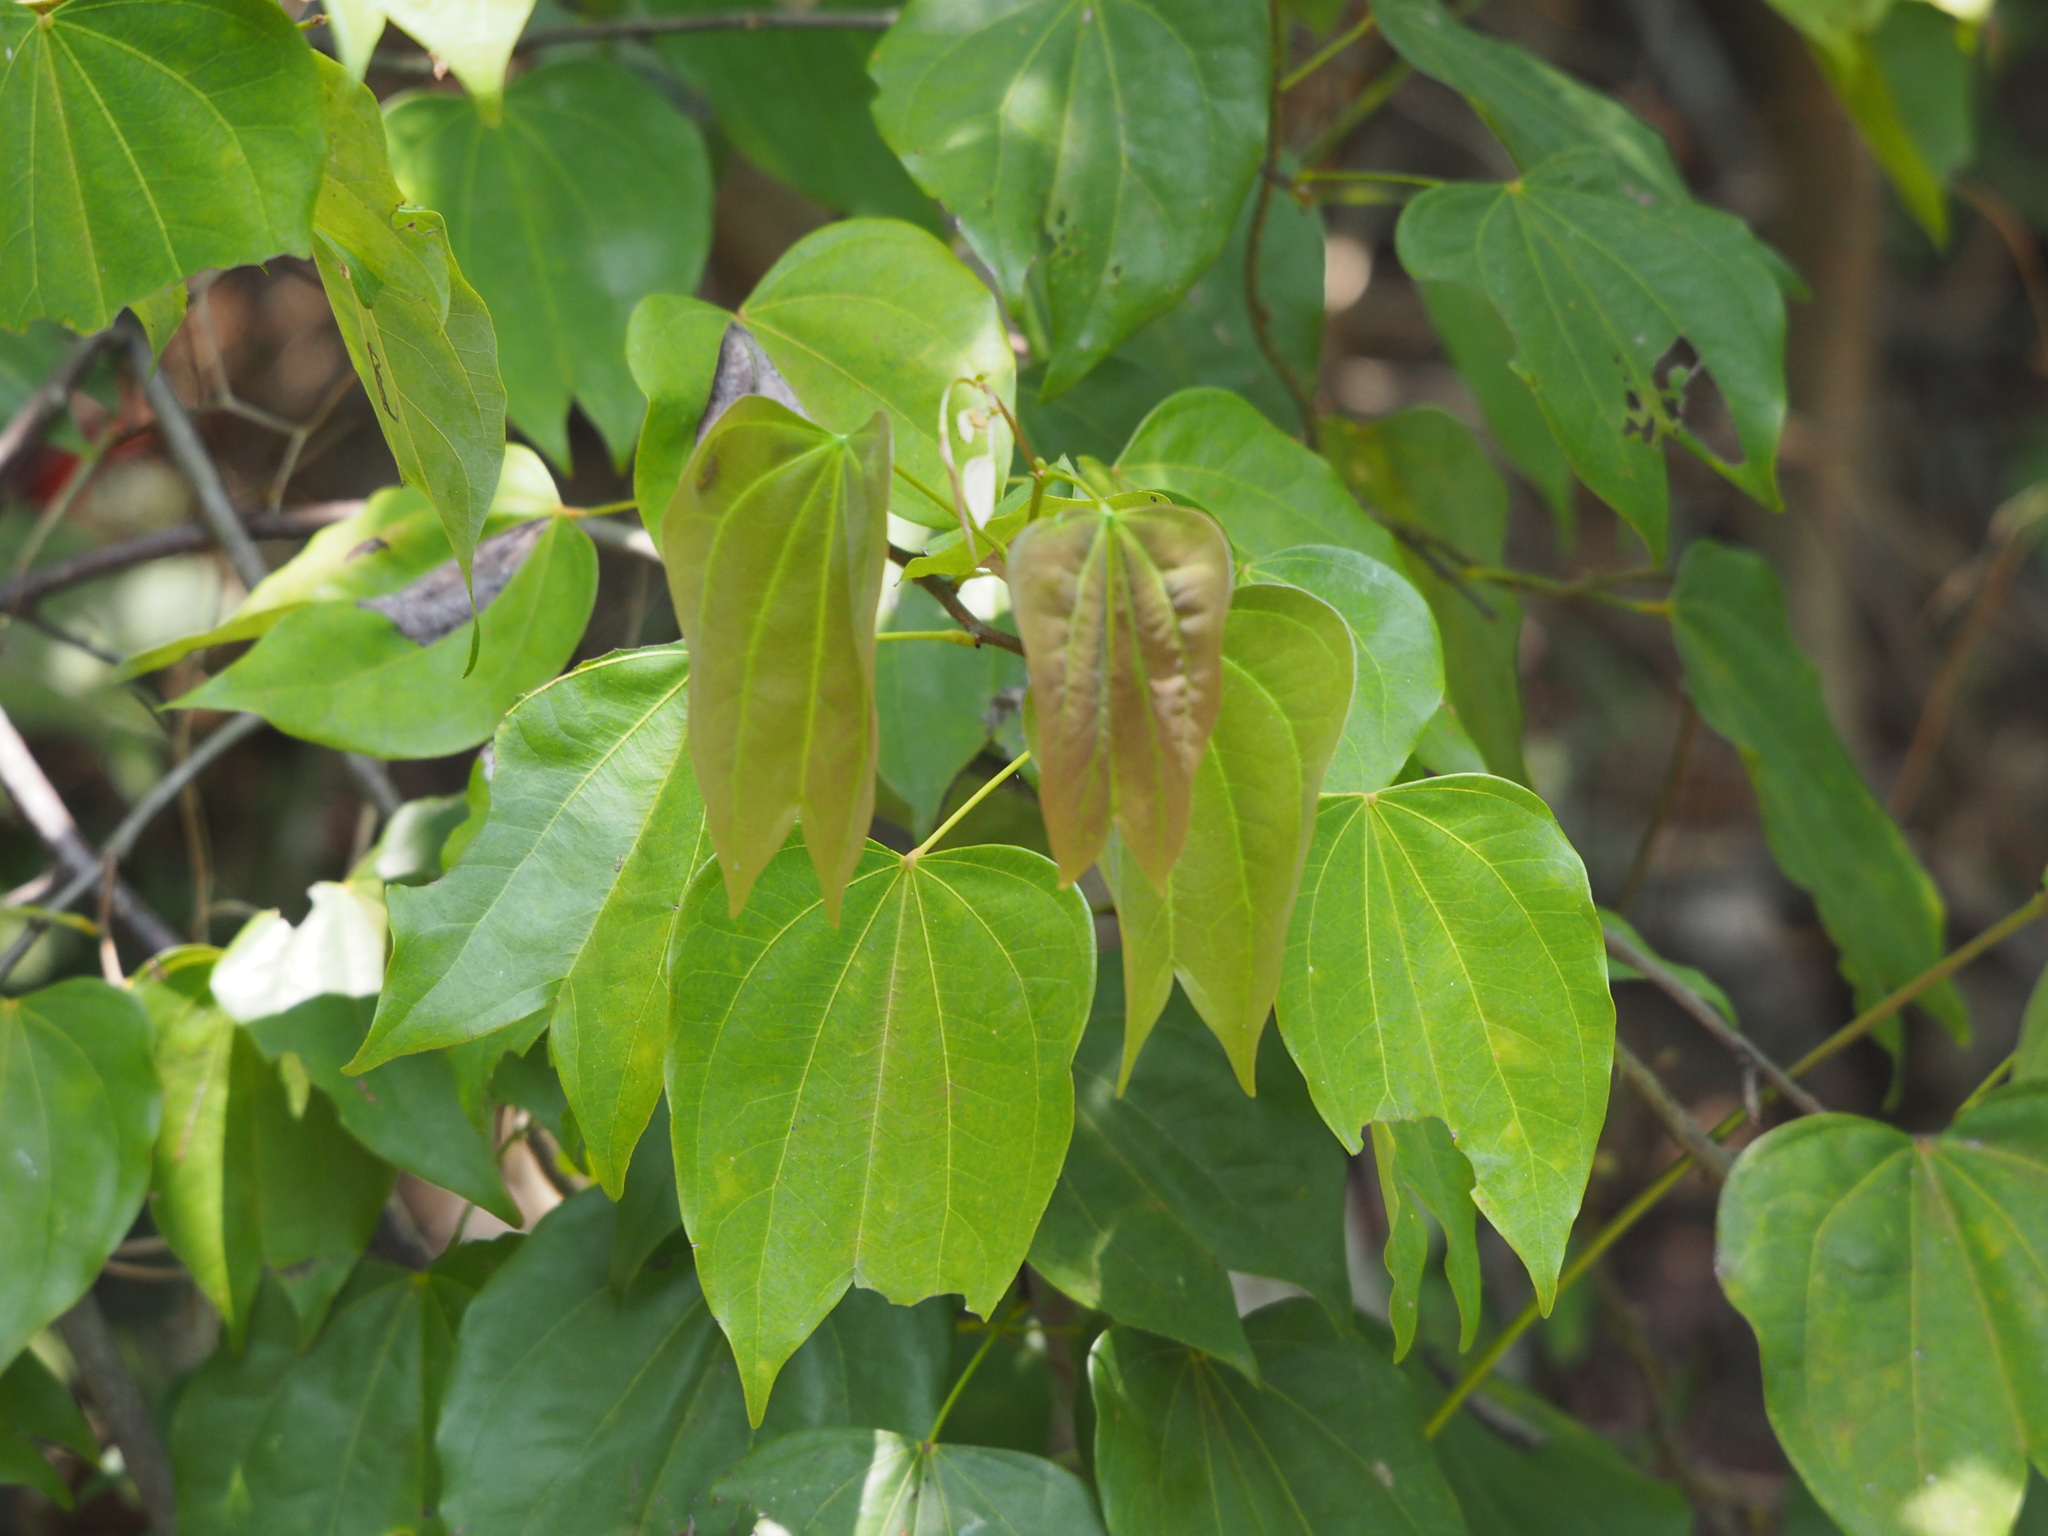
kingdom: Plantae
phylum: Tracheophyta
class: Magnoliopsida
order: Fabales
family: Fabaceae
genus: Phanera
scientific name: Phanera championii
